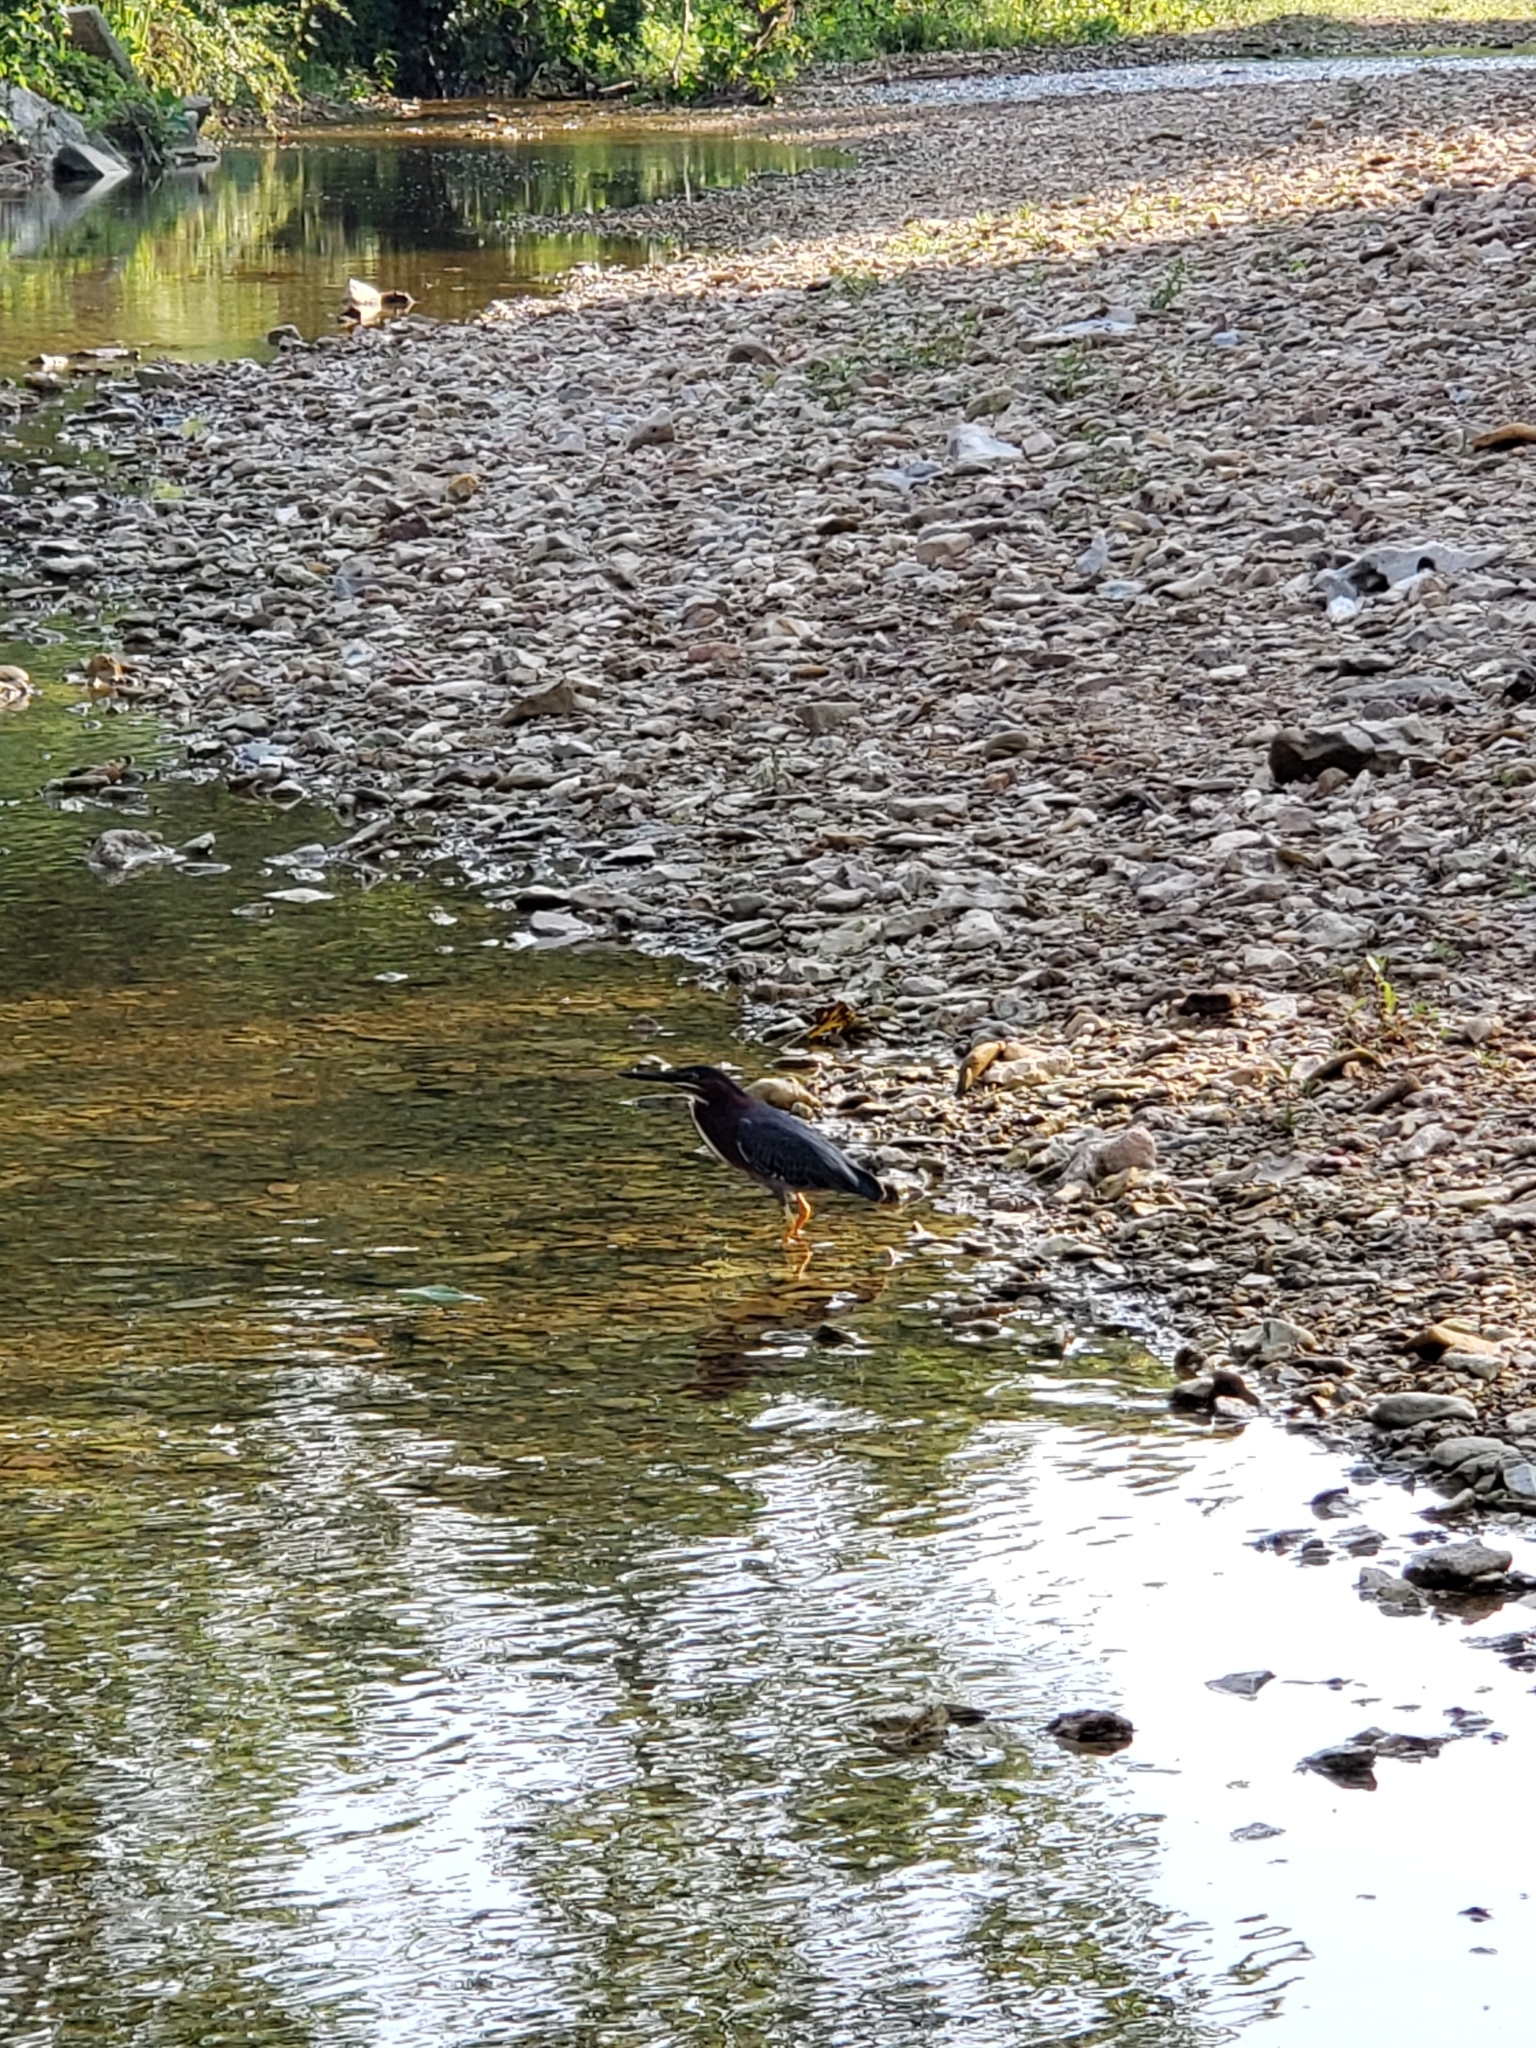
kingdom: Animalia
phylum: Chordata
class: Aves
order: Pelecaniformes
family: Ardeidae
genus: Butorides
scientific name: Butorides virescens
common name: Green heron
